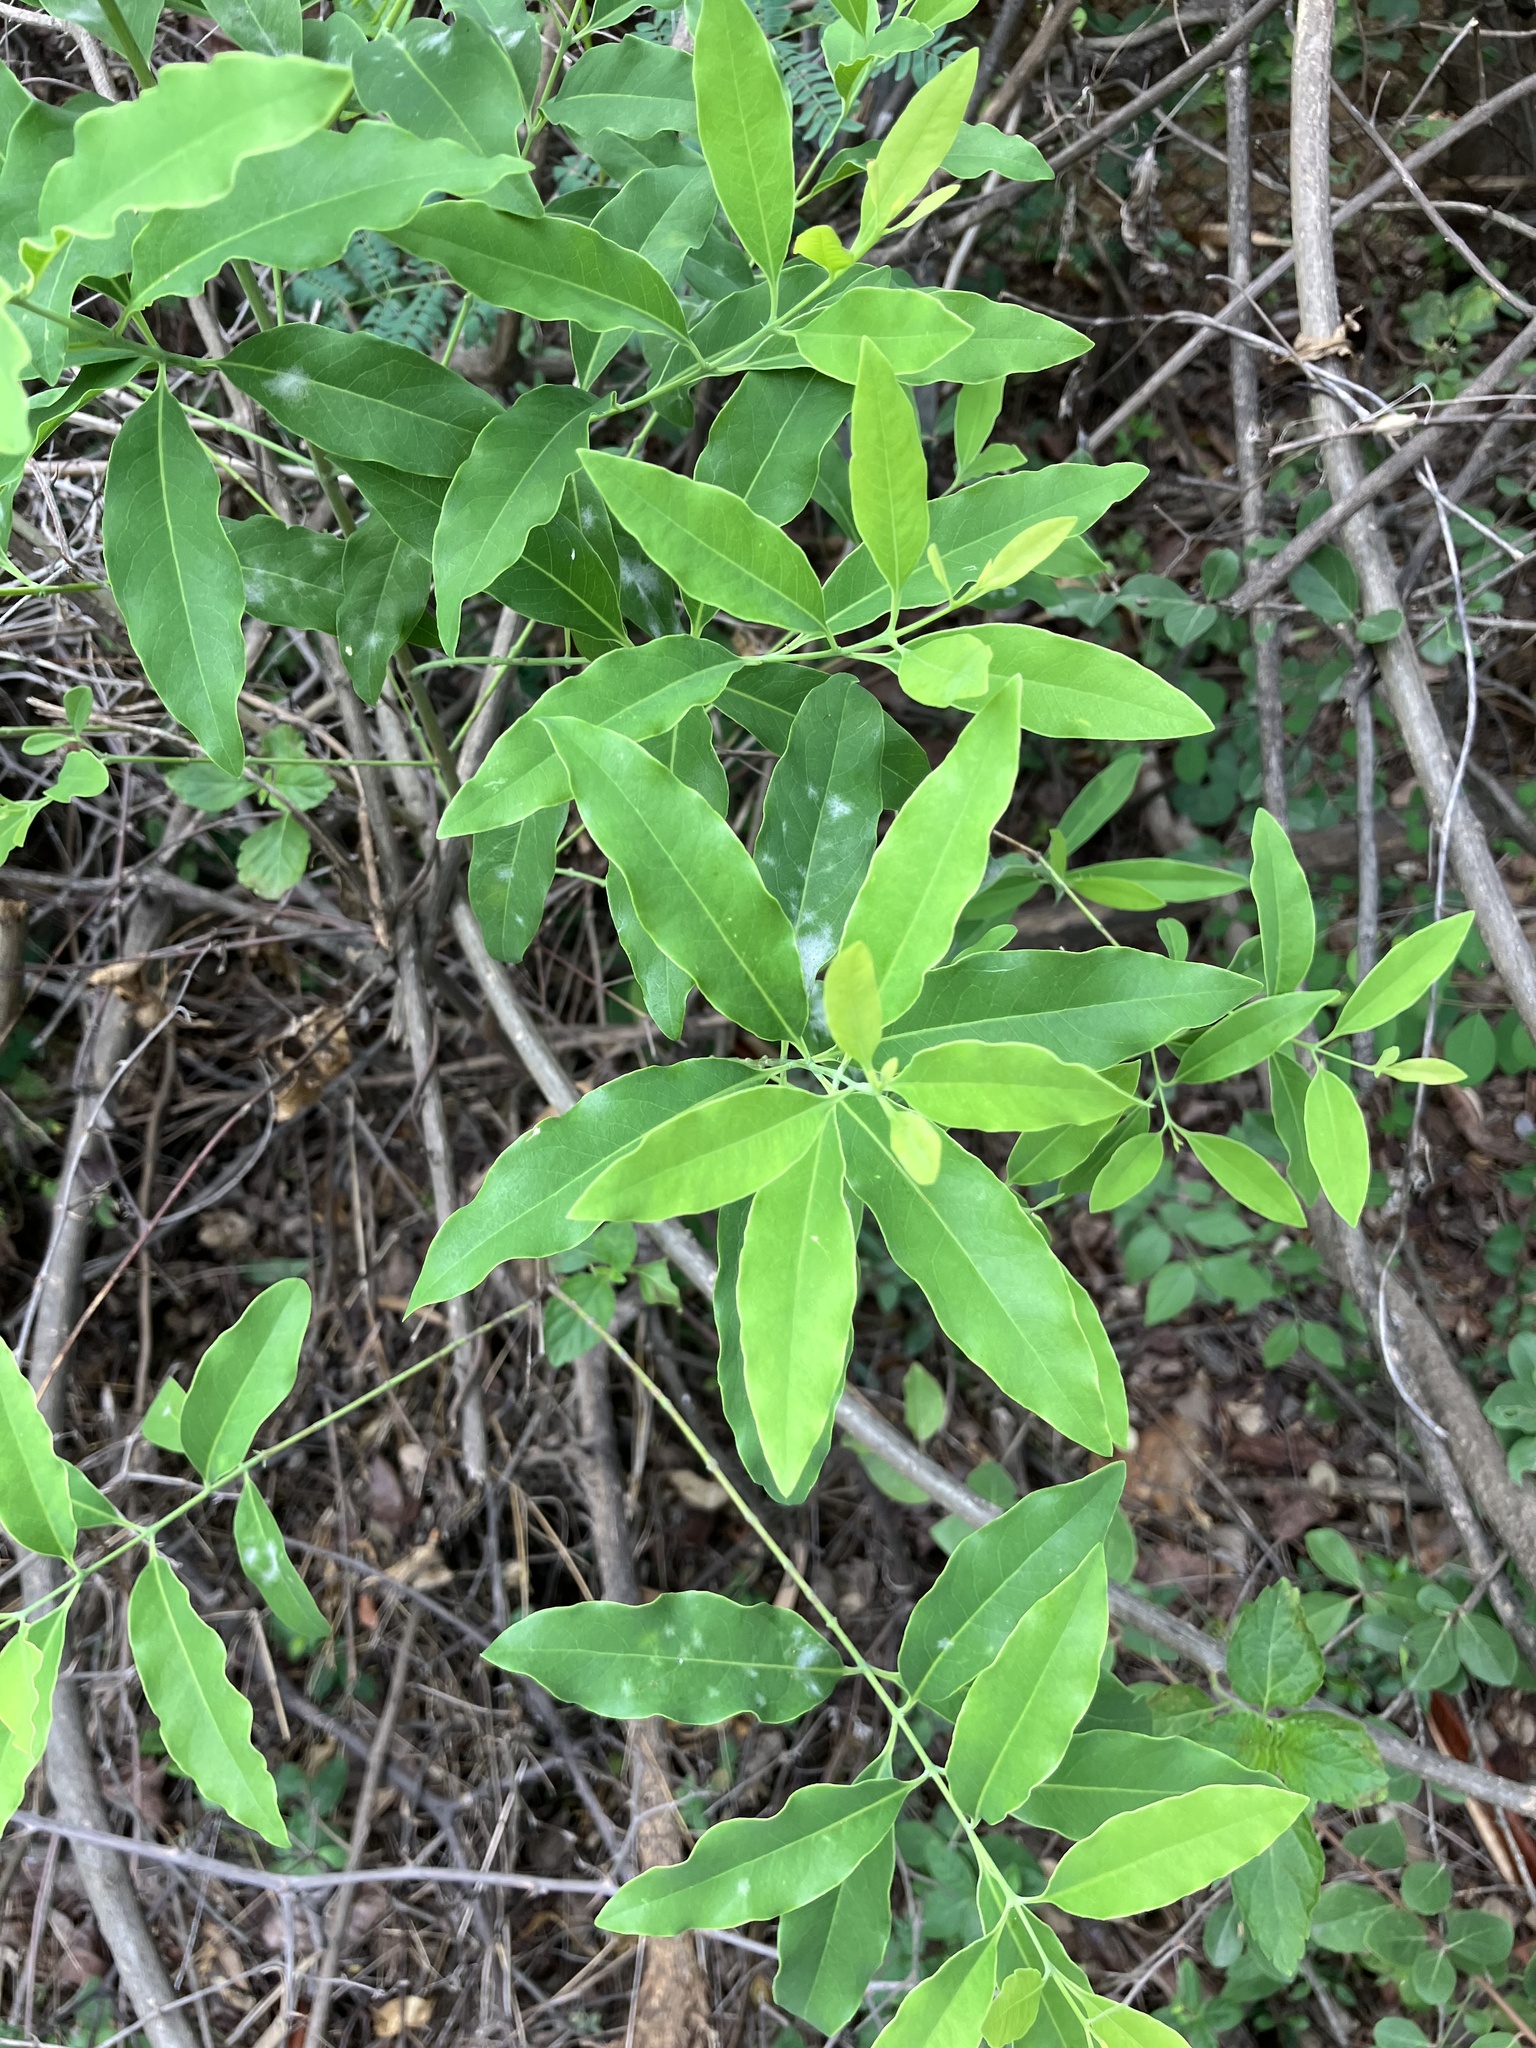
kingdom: Plantae
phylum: Tracheophyta
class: Magnoliopsida
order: Santalales
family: Santalaceae
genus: Santalum
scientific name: Santalum album
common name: Indian sandalwood
